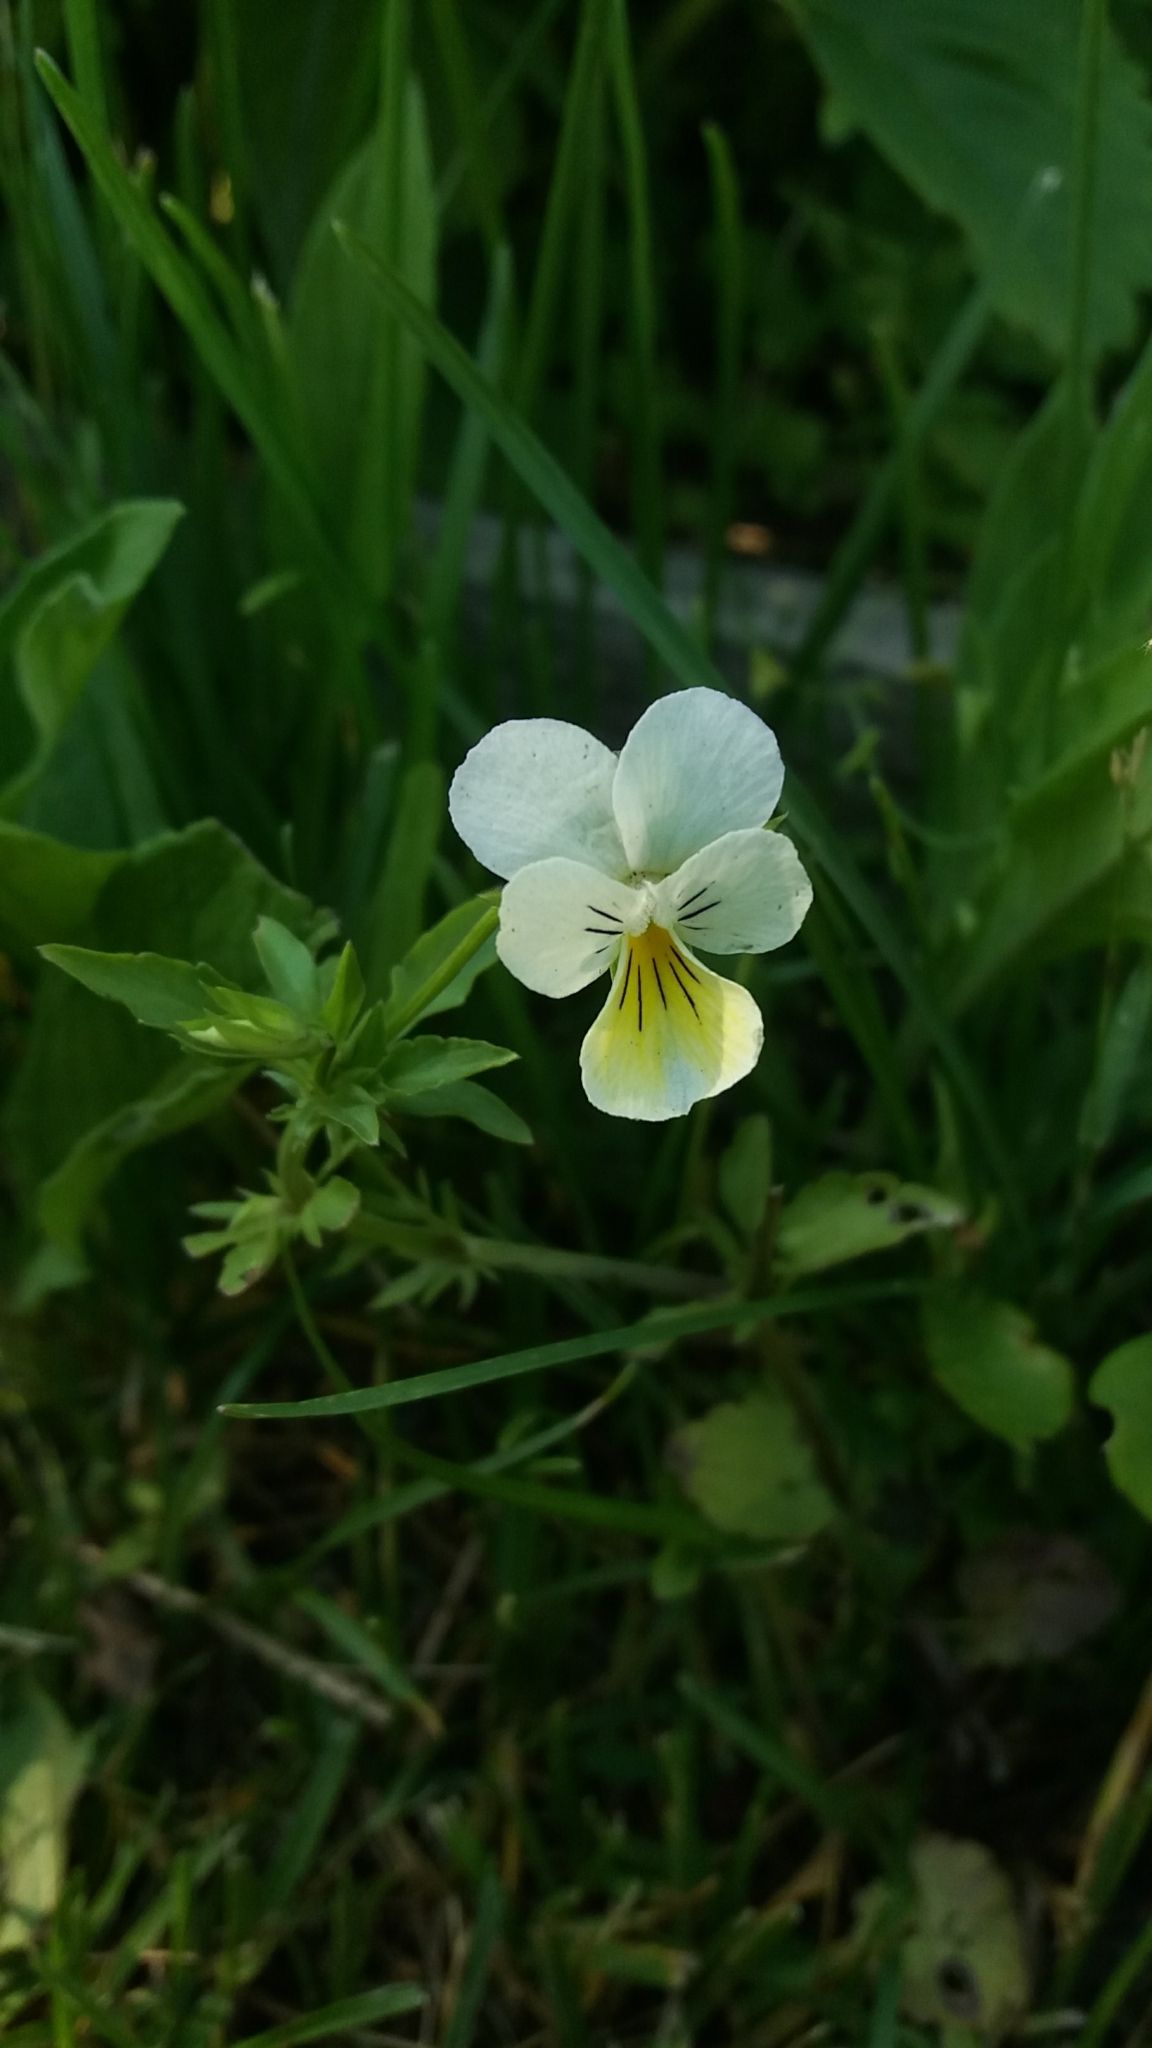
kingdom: Plantae
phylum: Tracheophyta
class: Magnoliopsida
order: Malpighiales
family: Violaceae
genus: Viola
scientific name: Viola tricolor
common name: Pansy
